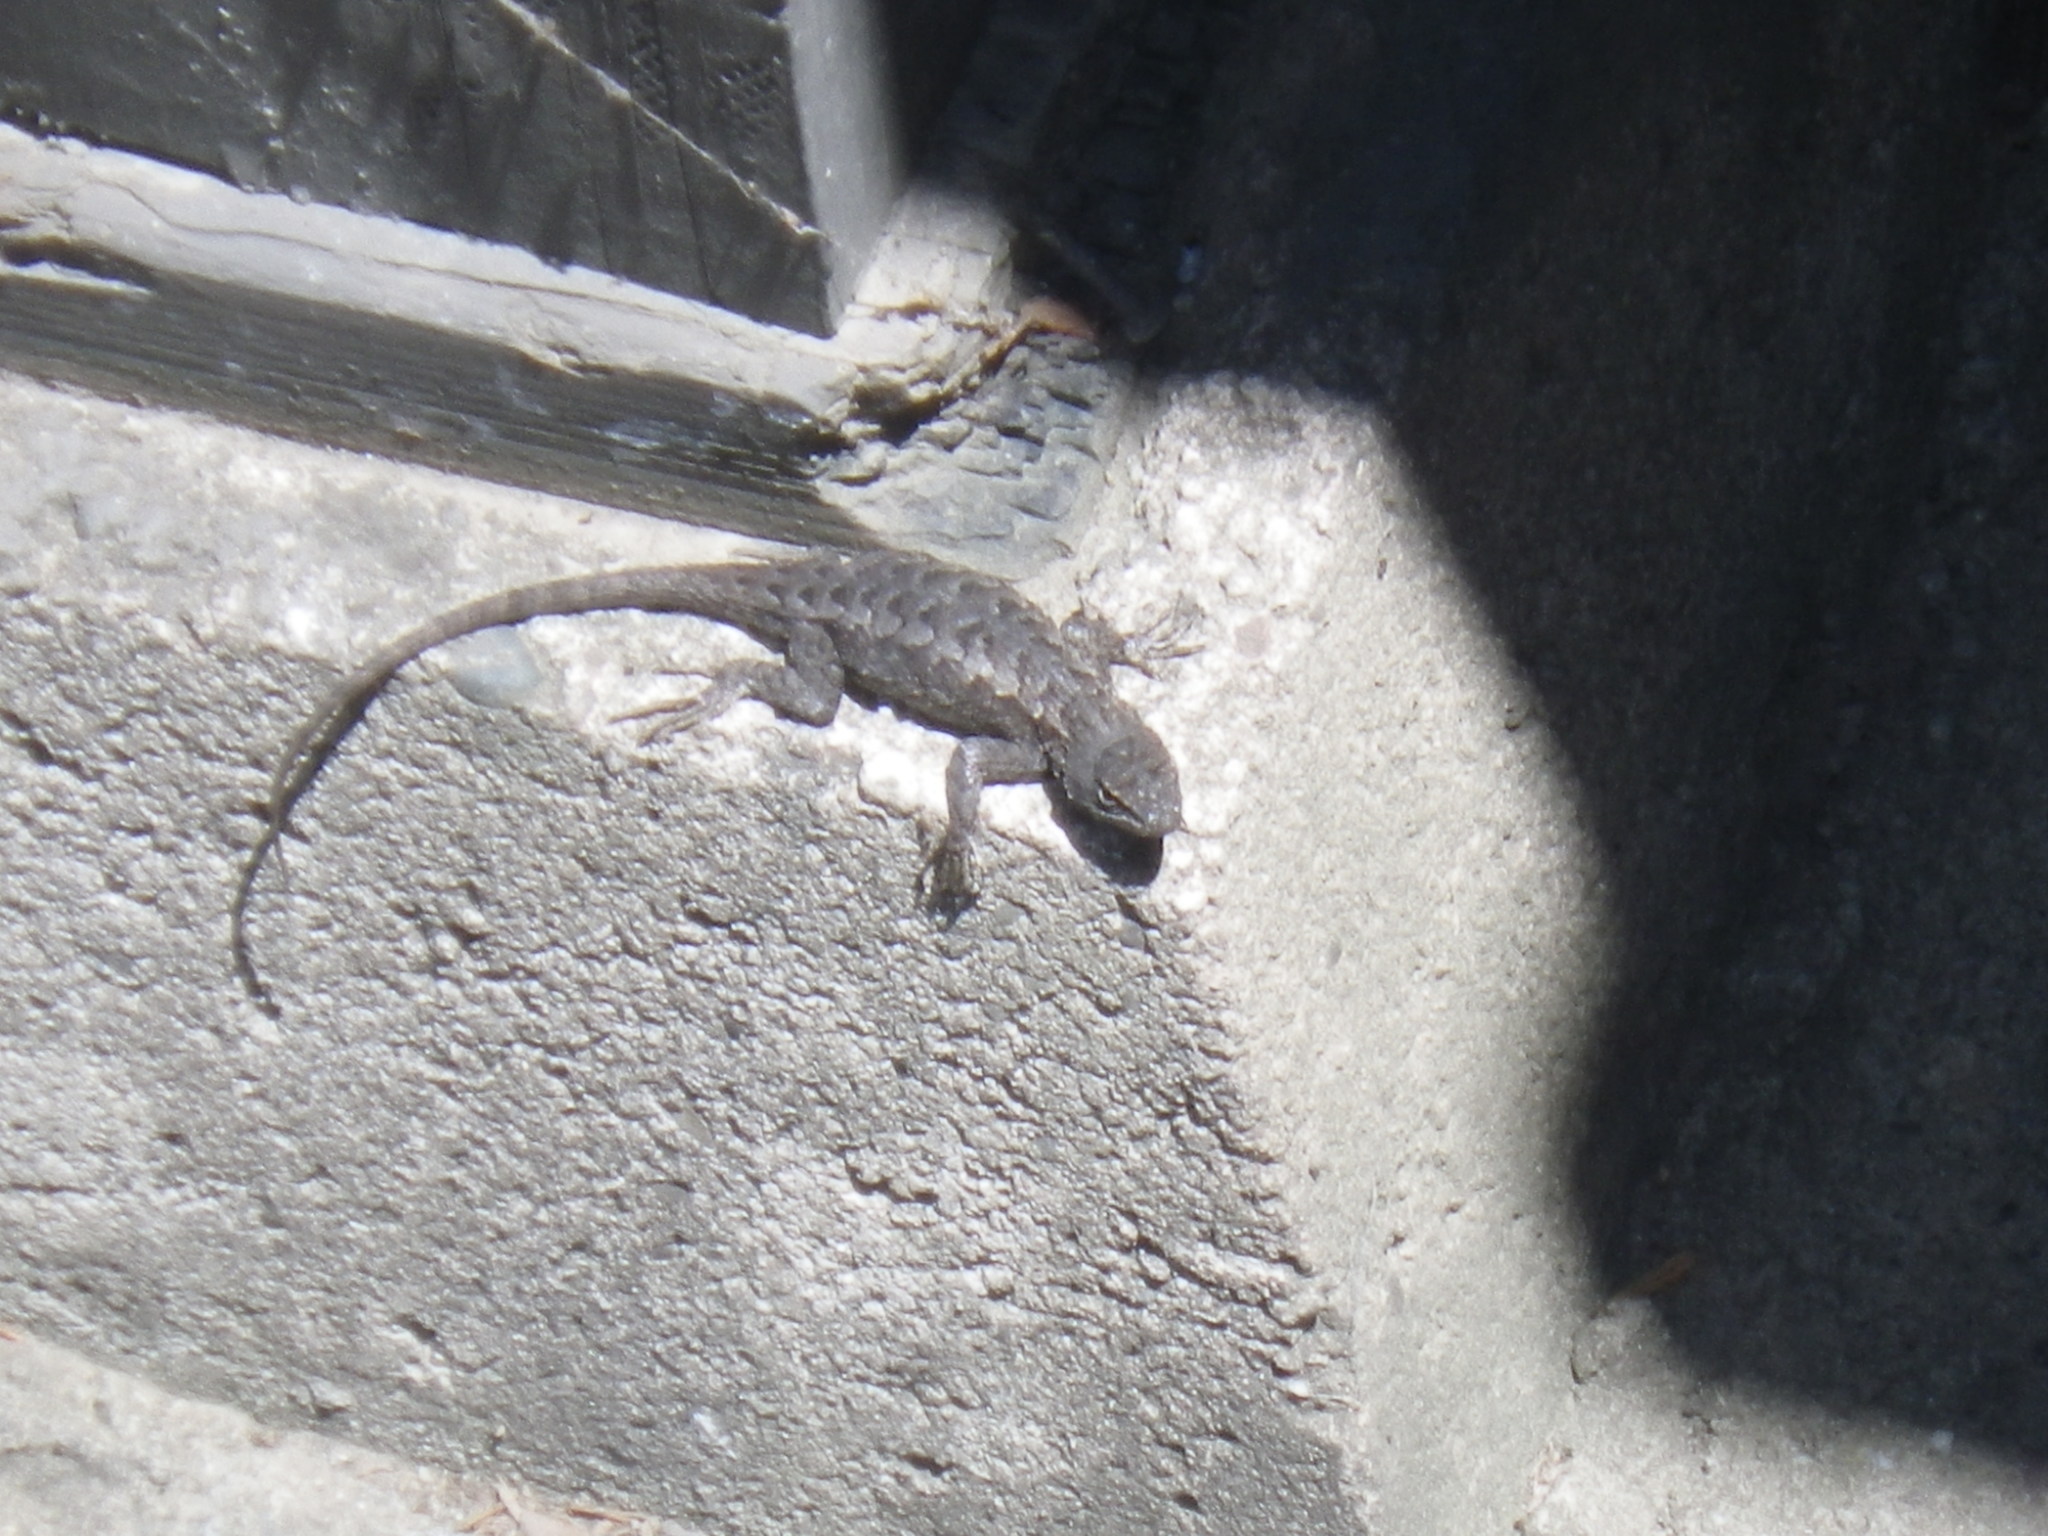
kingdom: Animalia
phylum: Chordata
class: Squamata
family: Phrynosomatidae
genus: Sceloporus
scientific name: Sceloporus occidentalis
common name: Western fence lizard
